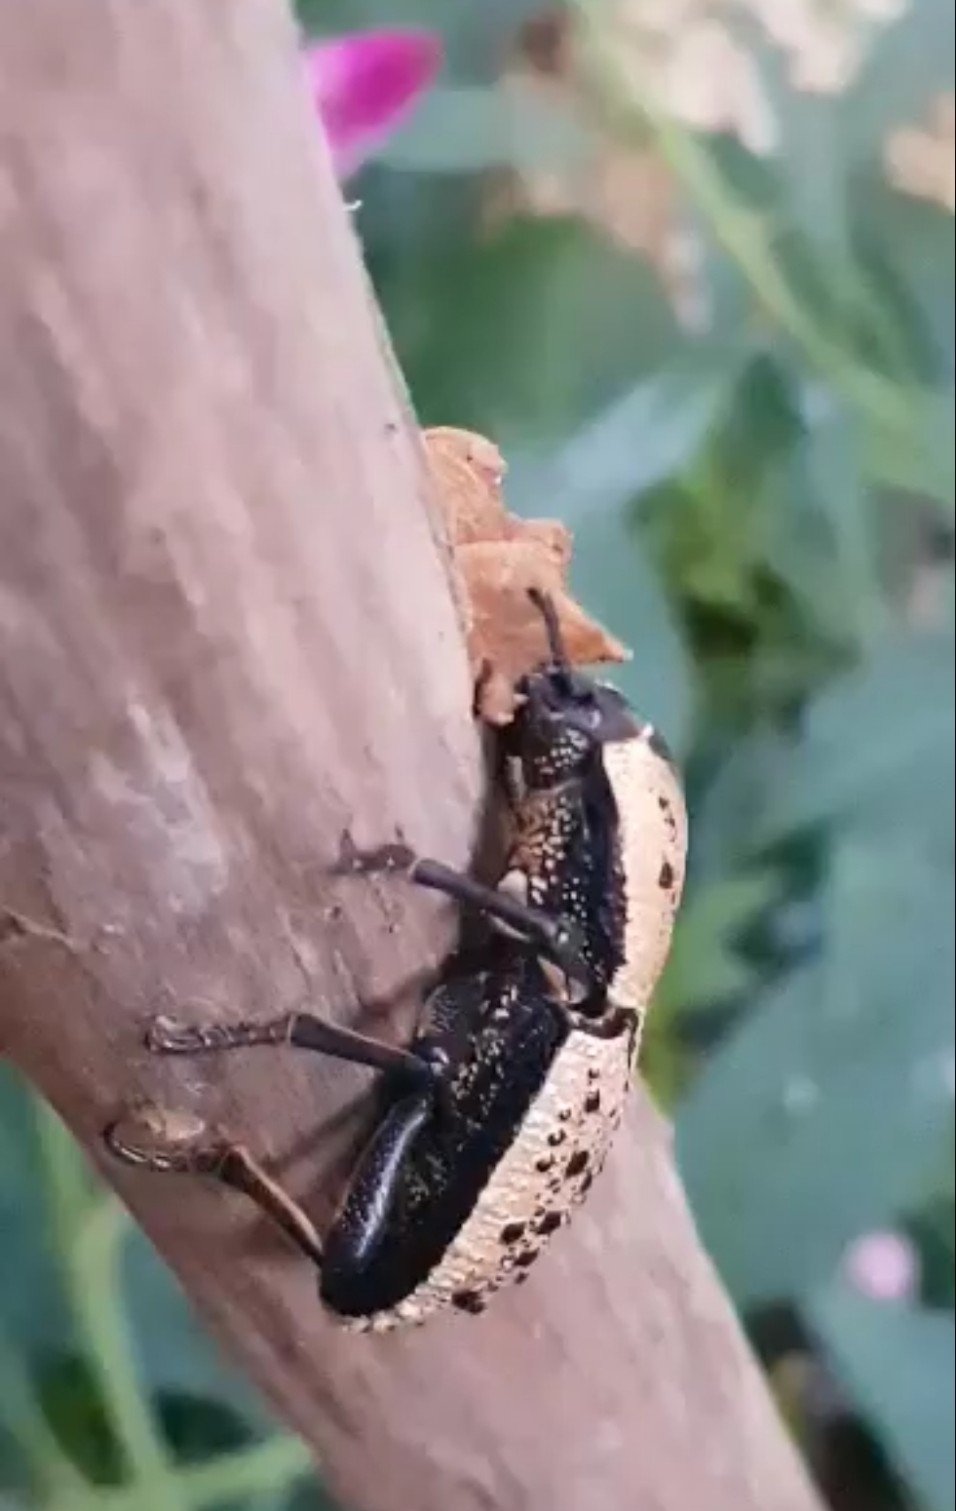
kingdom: Animalia
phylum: Arthropoda
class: Insecta
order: Coleoptera
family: Zopheridae
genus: Zopherus
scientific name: Zopherus
